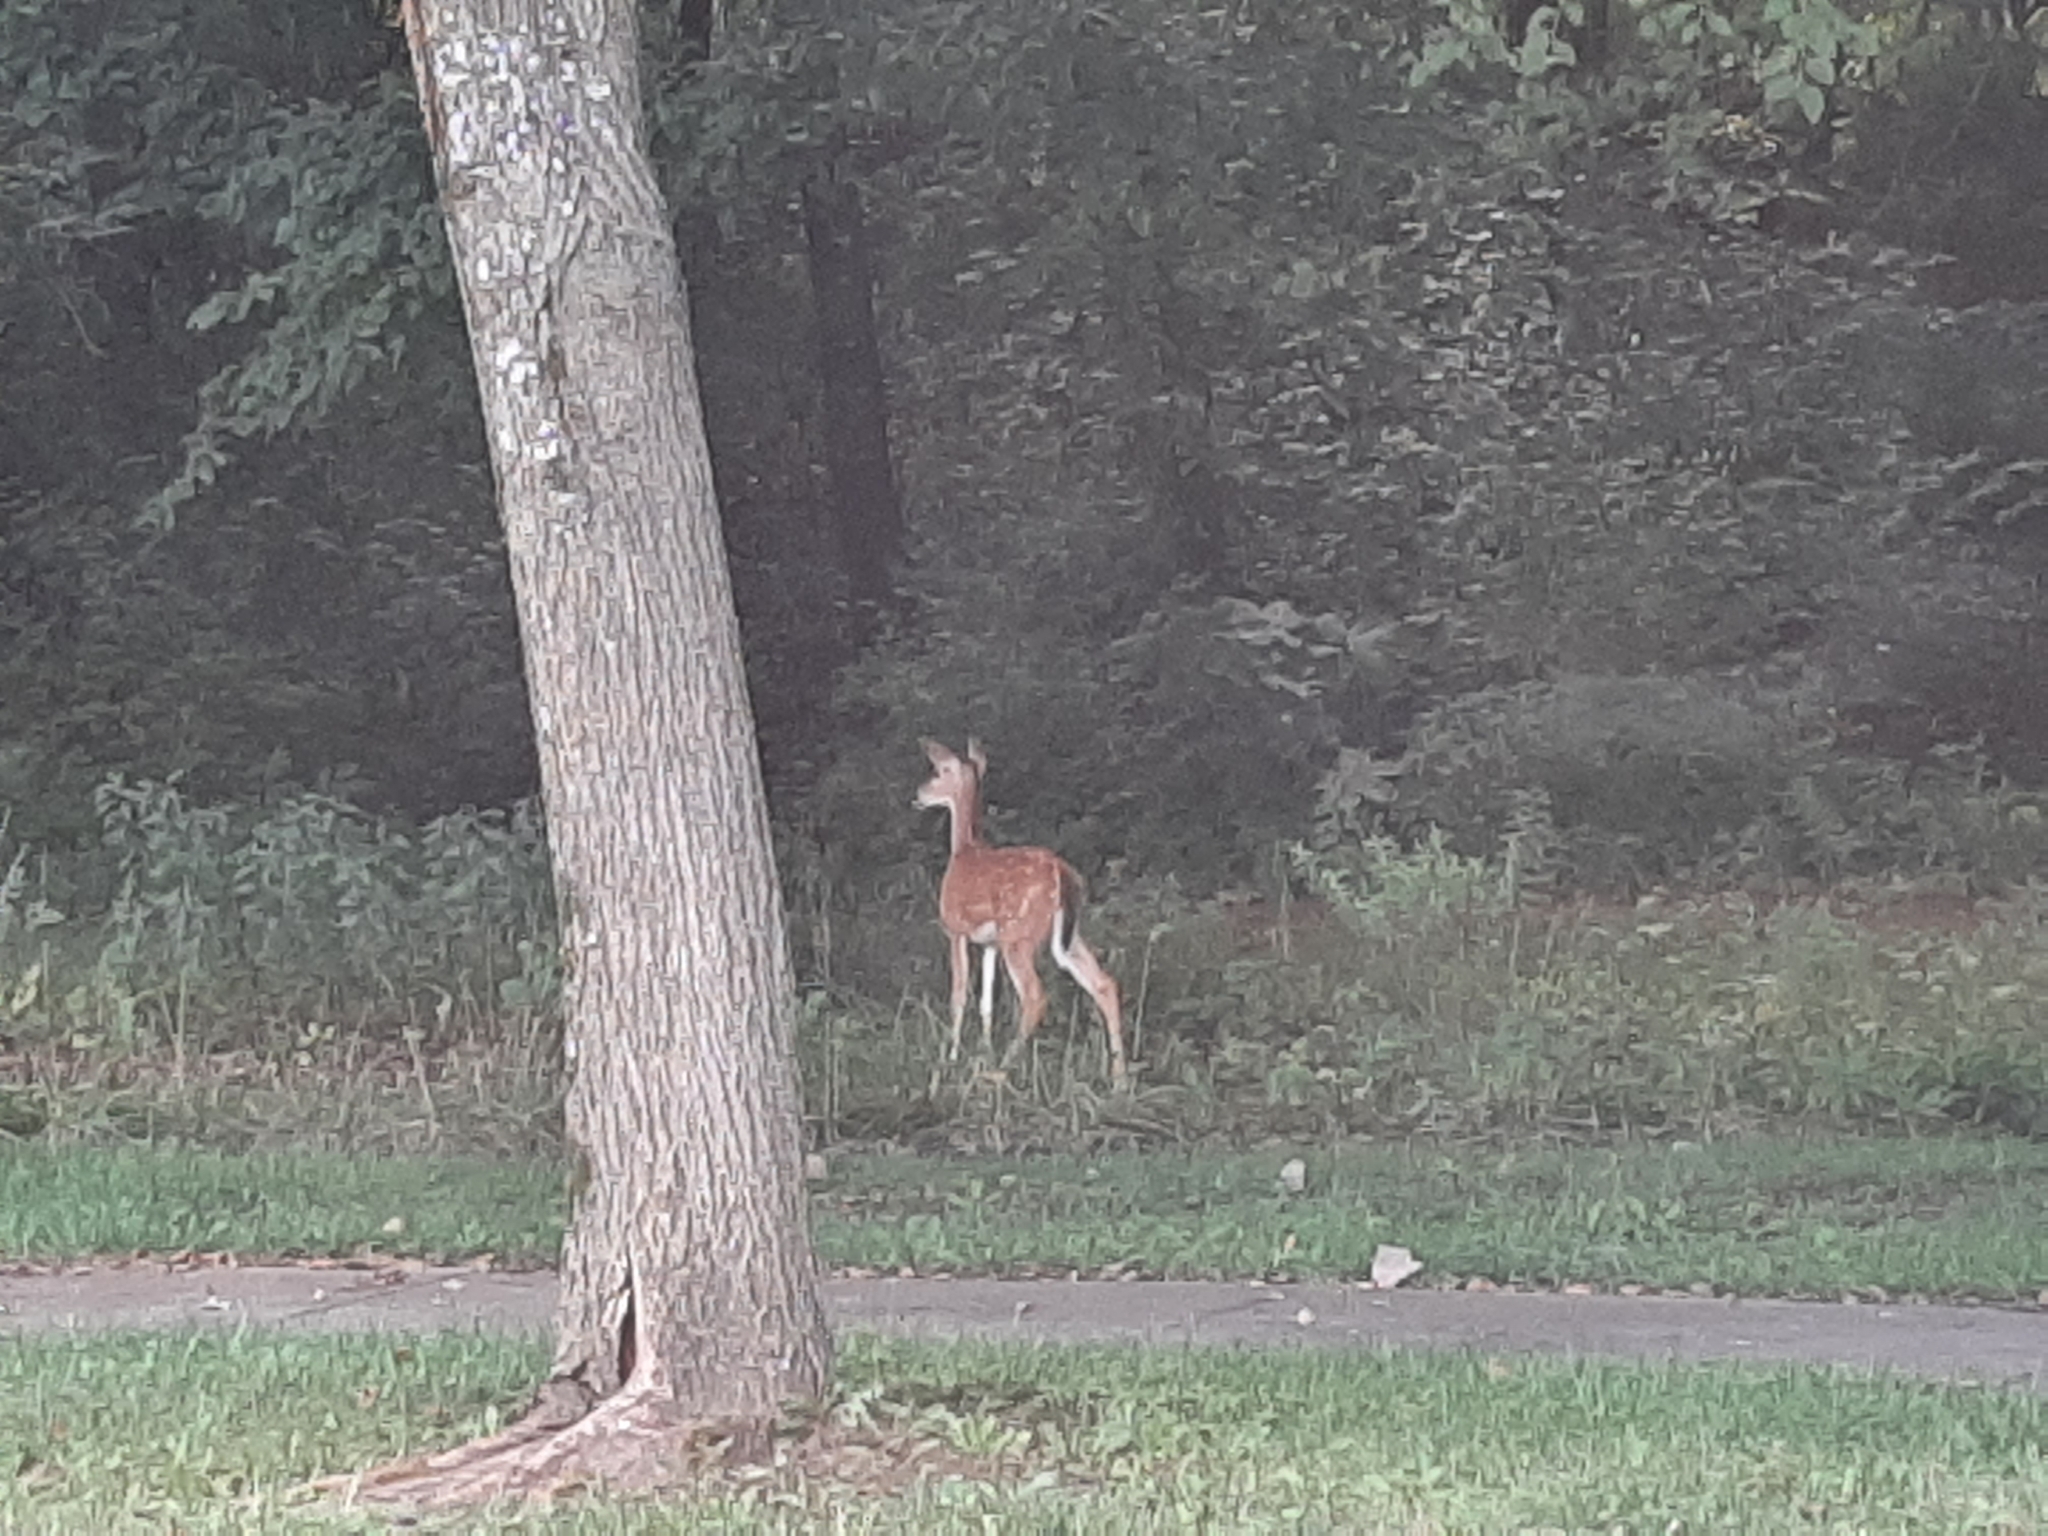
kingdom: Animalia
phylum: Chordata
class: Mammalia
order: Artiodactyla
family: Cervidae
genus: Odocoileus
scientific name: Odocoileus virginianus
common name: White-tailed deer
